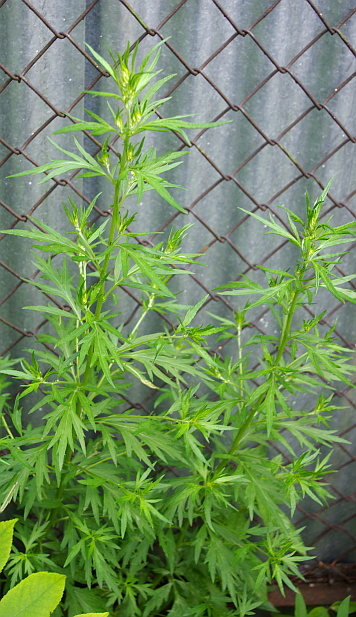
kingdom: Plantae
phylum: Tracheophyta
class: Magnoliopsida
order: Asterales
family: Asteraceae
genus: Artemisia
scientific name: Artemisia vulgaris
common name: Mugwort
